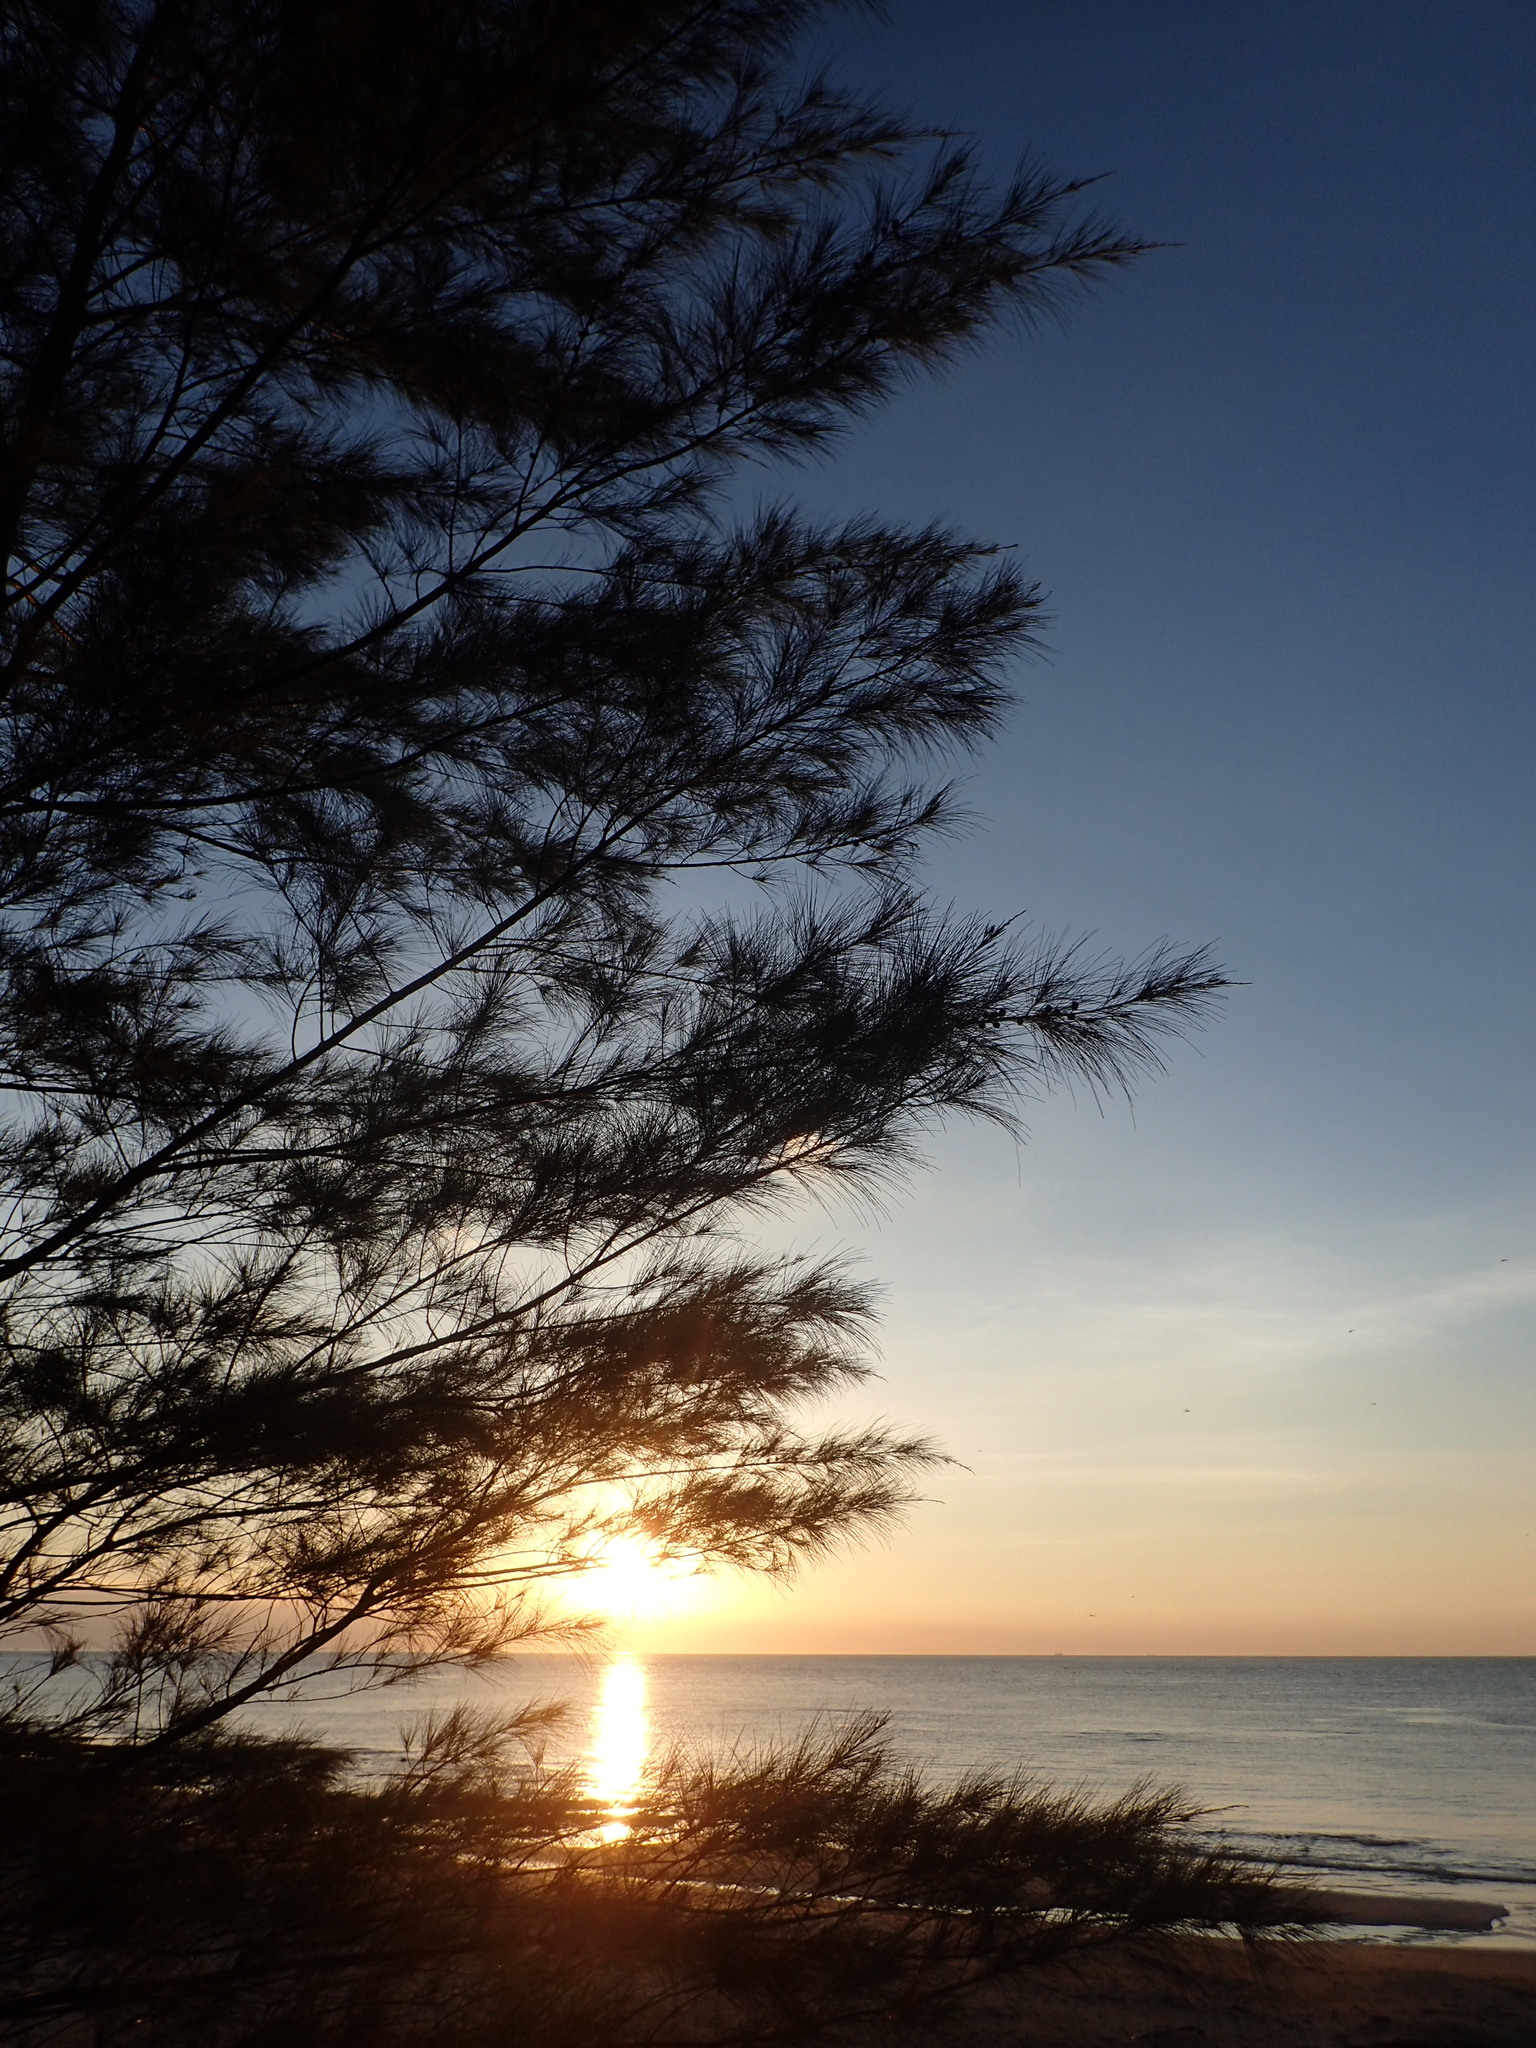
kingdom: Plantae
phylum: Tracheophyta
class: Magnoliopsida
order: Fagales
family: Casuarinaceae
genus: Casuarina
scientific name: Casuarina equisetifolia
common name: Beach sheoak
